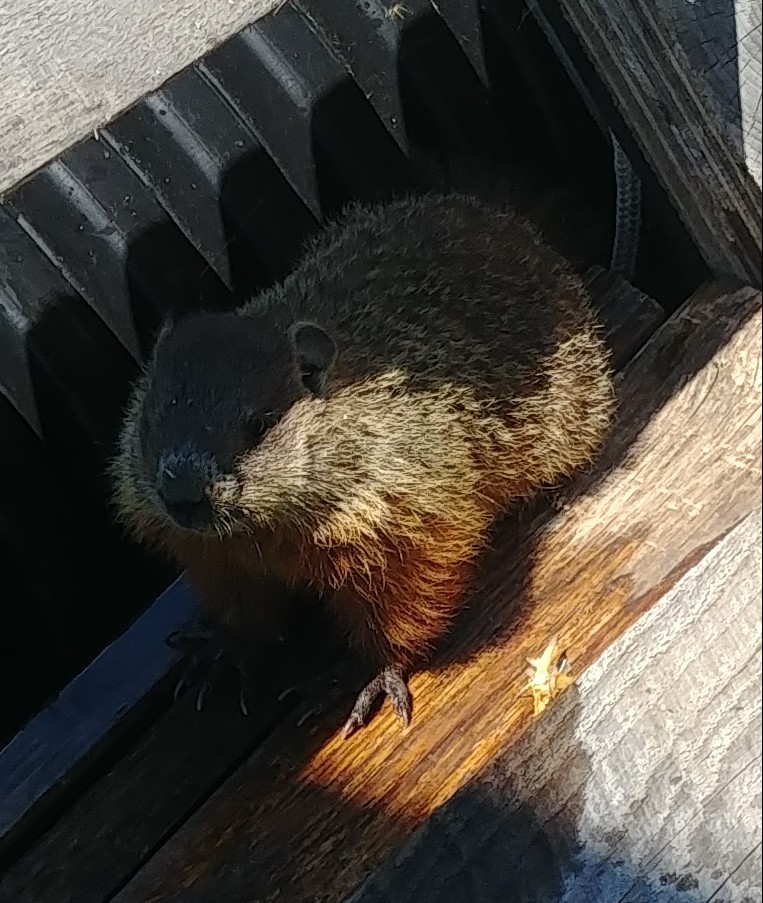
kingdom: Animalia
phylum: Chordata
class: Mammalia
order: Rodentia
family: Sciuridae
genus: Marmota
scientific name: Marmota monax
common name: Groundhog
